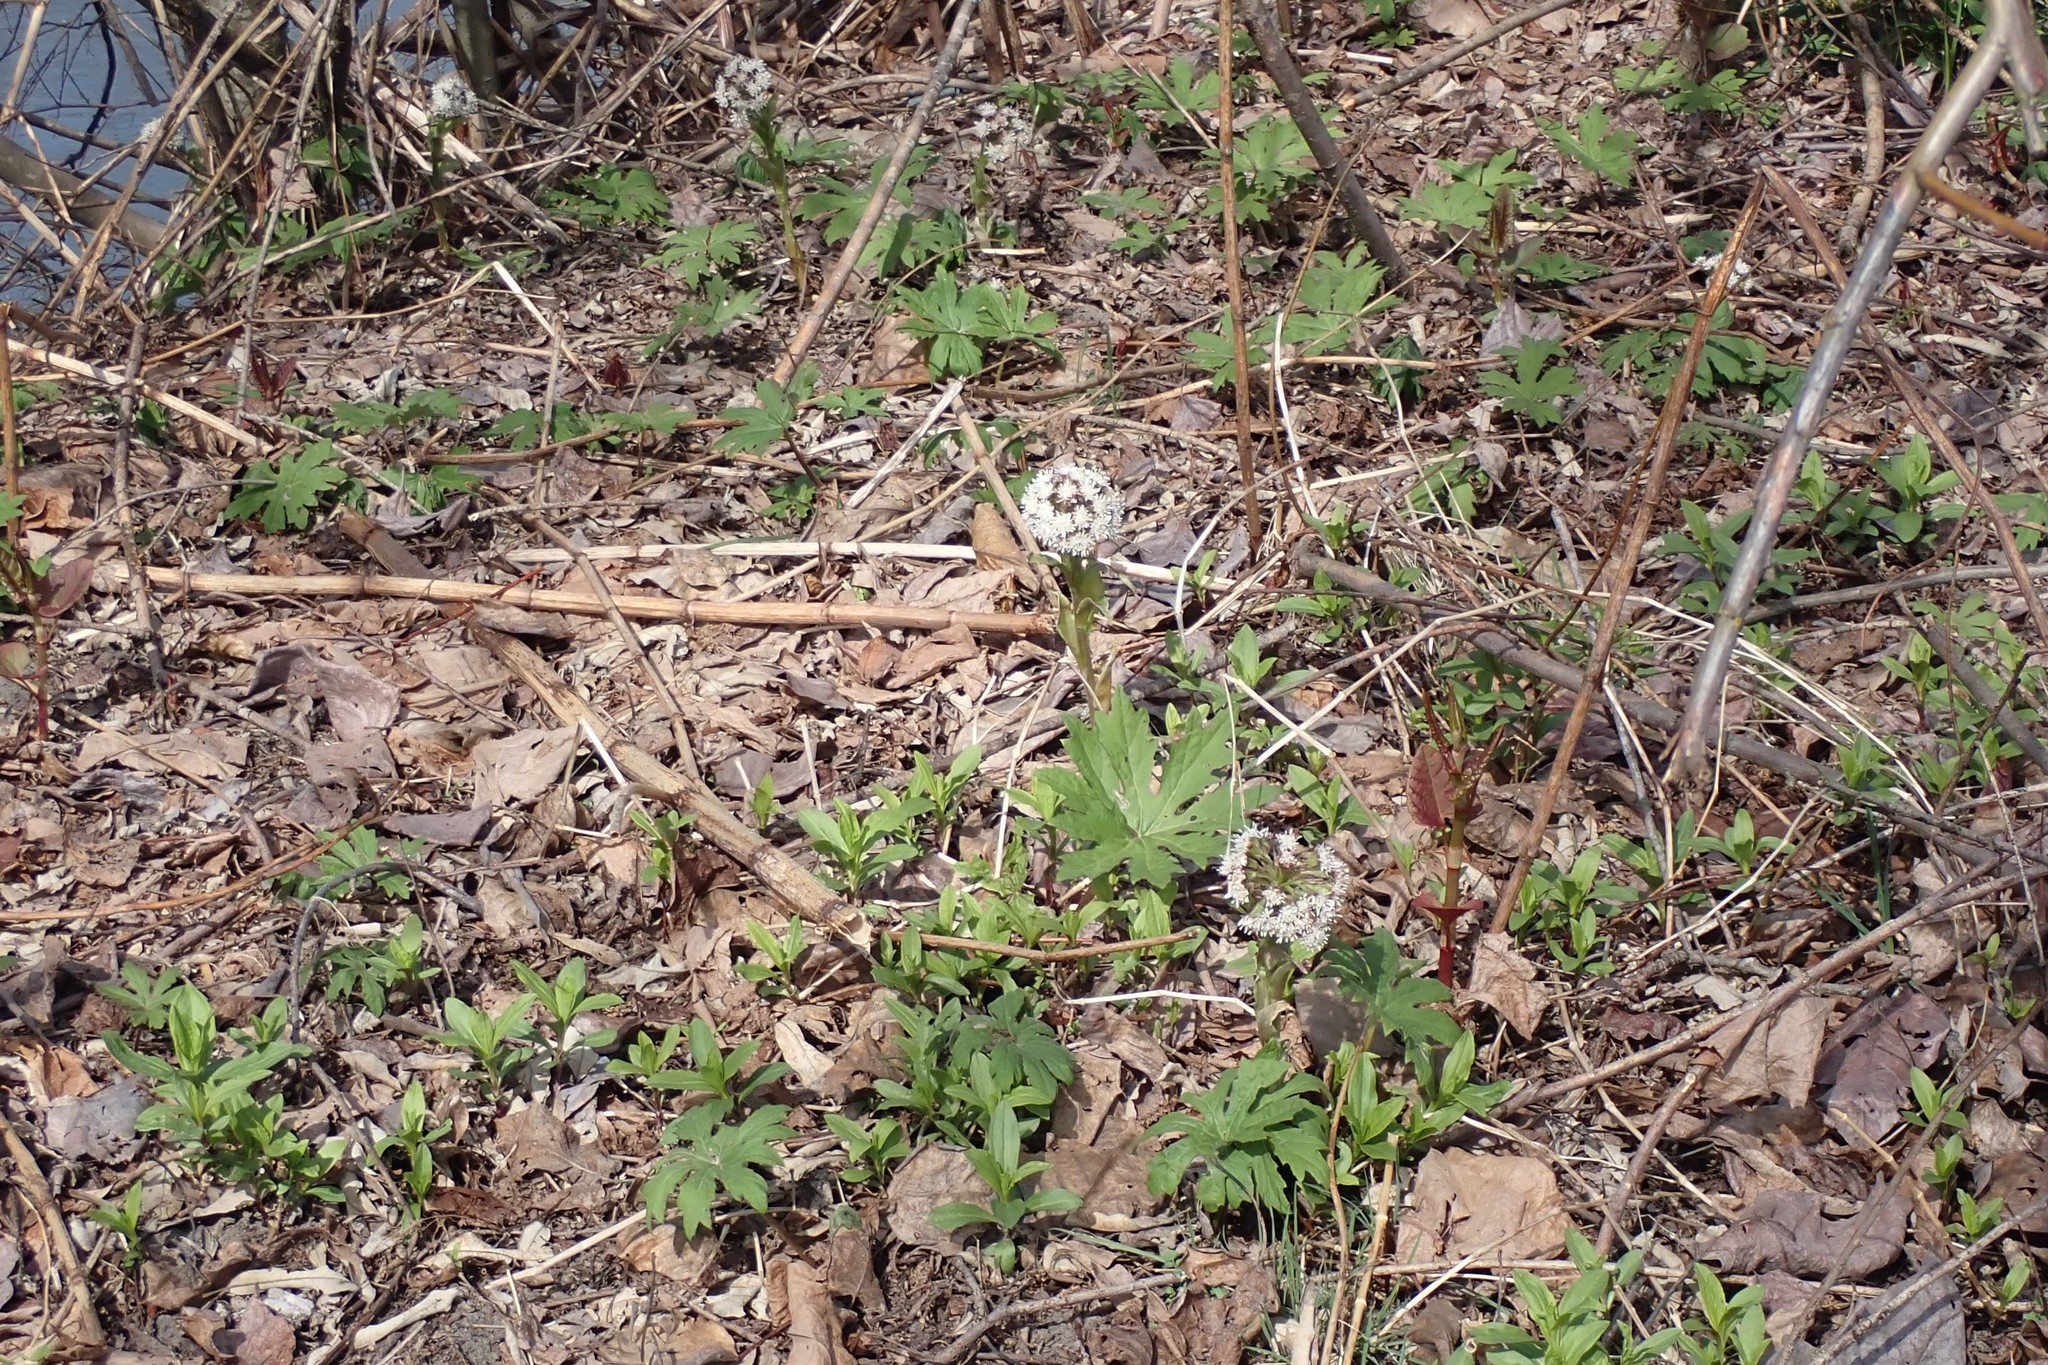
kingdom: Plantae
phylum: Tracheophyta
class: Magnoliopsida
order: Asterales
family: Asteraceae
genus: Petasites
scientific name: Petasites frigidus
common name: Arctic butterbur
